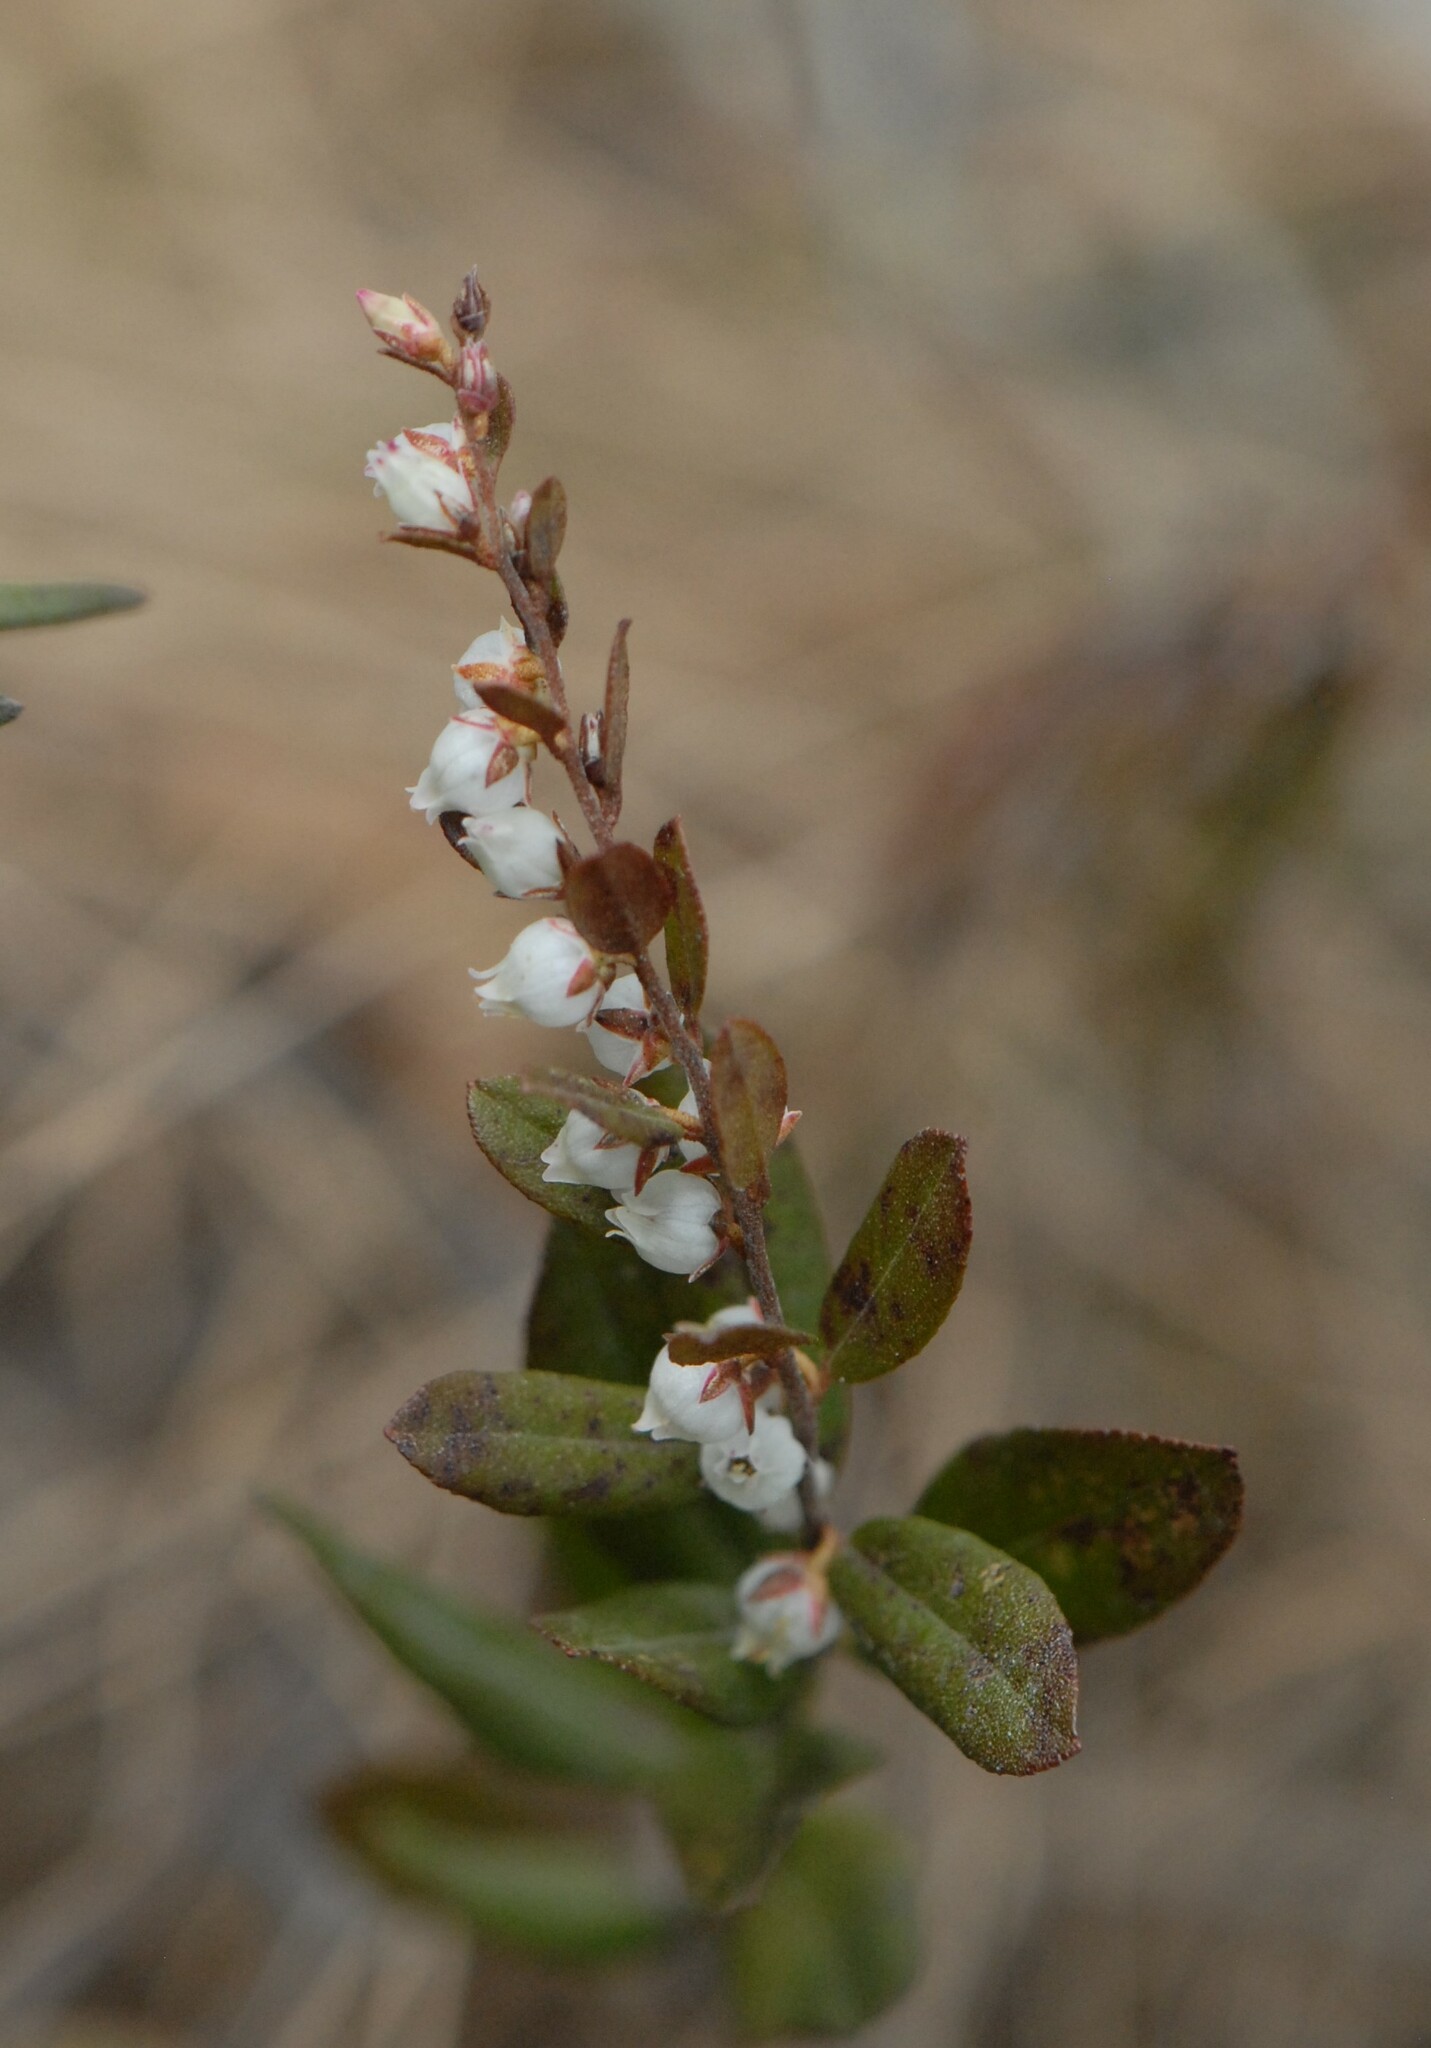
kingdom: Plantae
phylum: Tracheophyta
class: Magnoliopsida
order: Ericales
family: Ericaceae
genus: Chamaedaphne
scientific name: Chamaedaphne calyculata
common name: Leatherleaf
